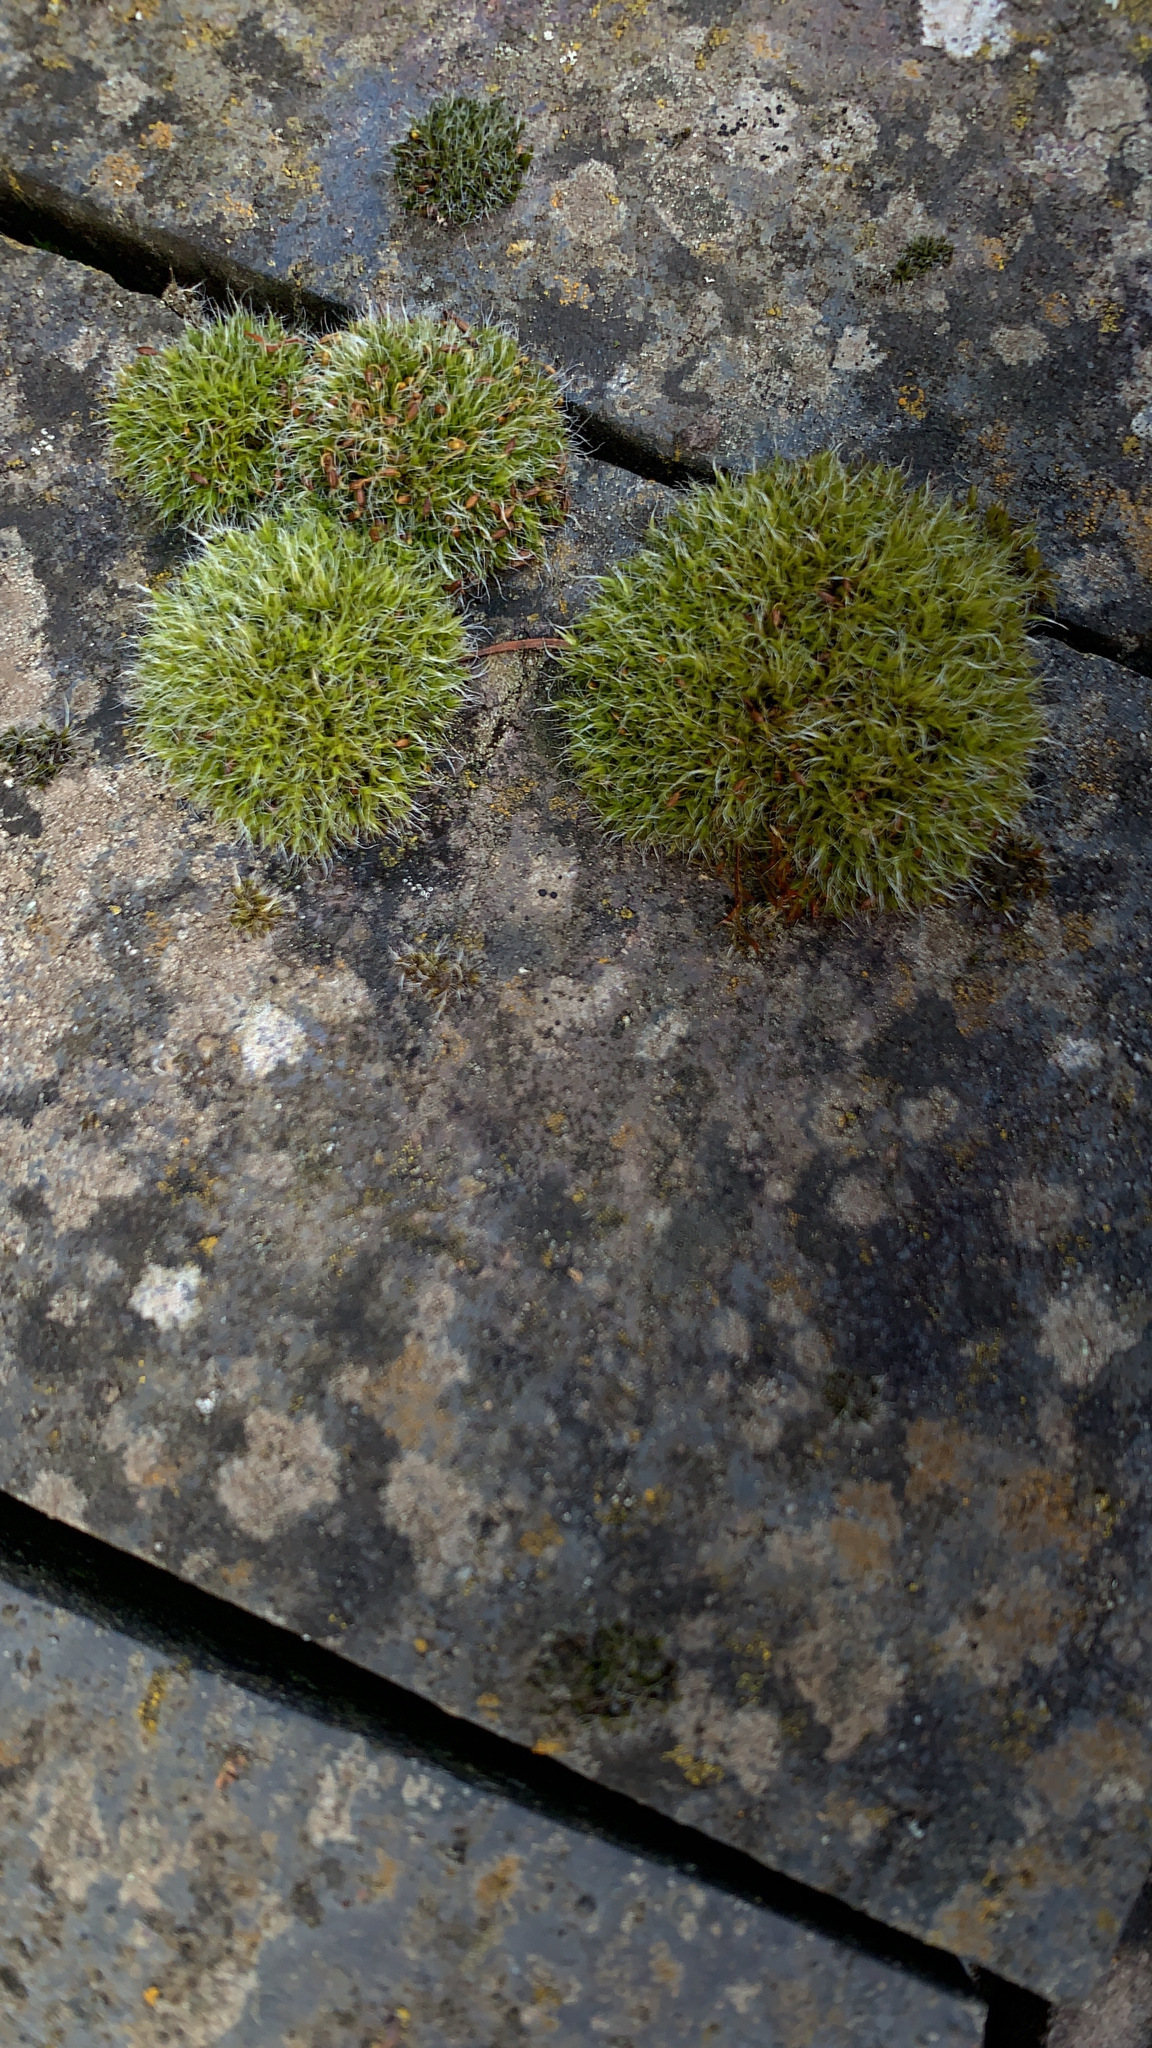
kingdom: Plantae
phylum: Bryophyta
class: Bryopsida
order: Grimmiales
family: Grimmiaceae
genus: Grimmia
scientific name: Grimmia pulvinata
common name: Grey-cushioned grimmia
